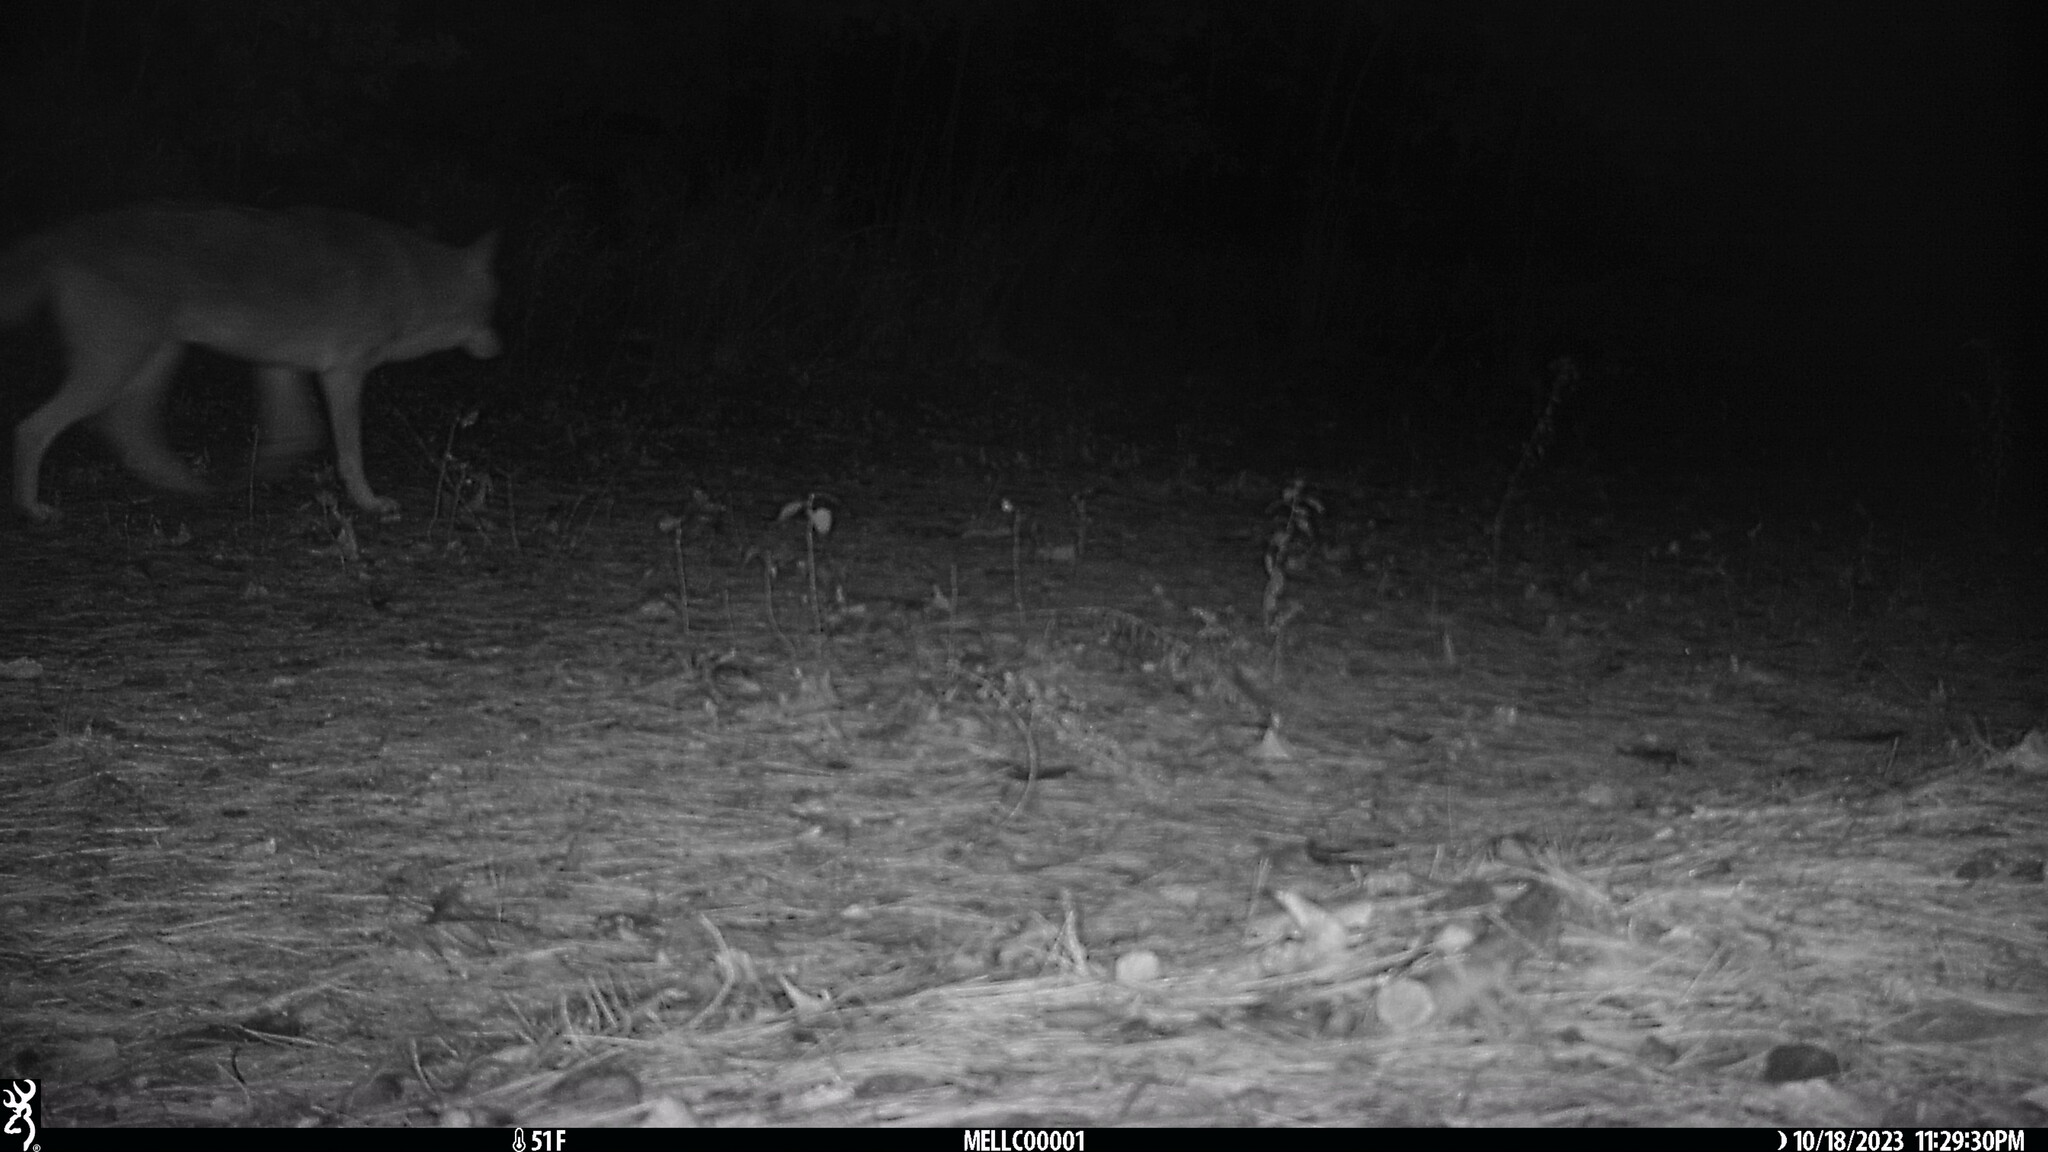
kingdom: Animalia
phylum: Chordata
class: Mammalia
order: Carnivora
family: Canidae
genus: Canis
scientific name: Canis latrans
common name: Coyote
